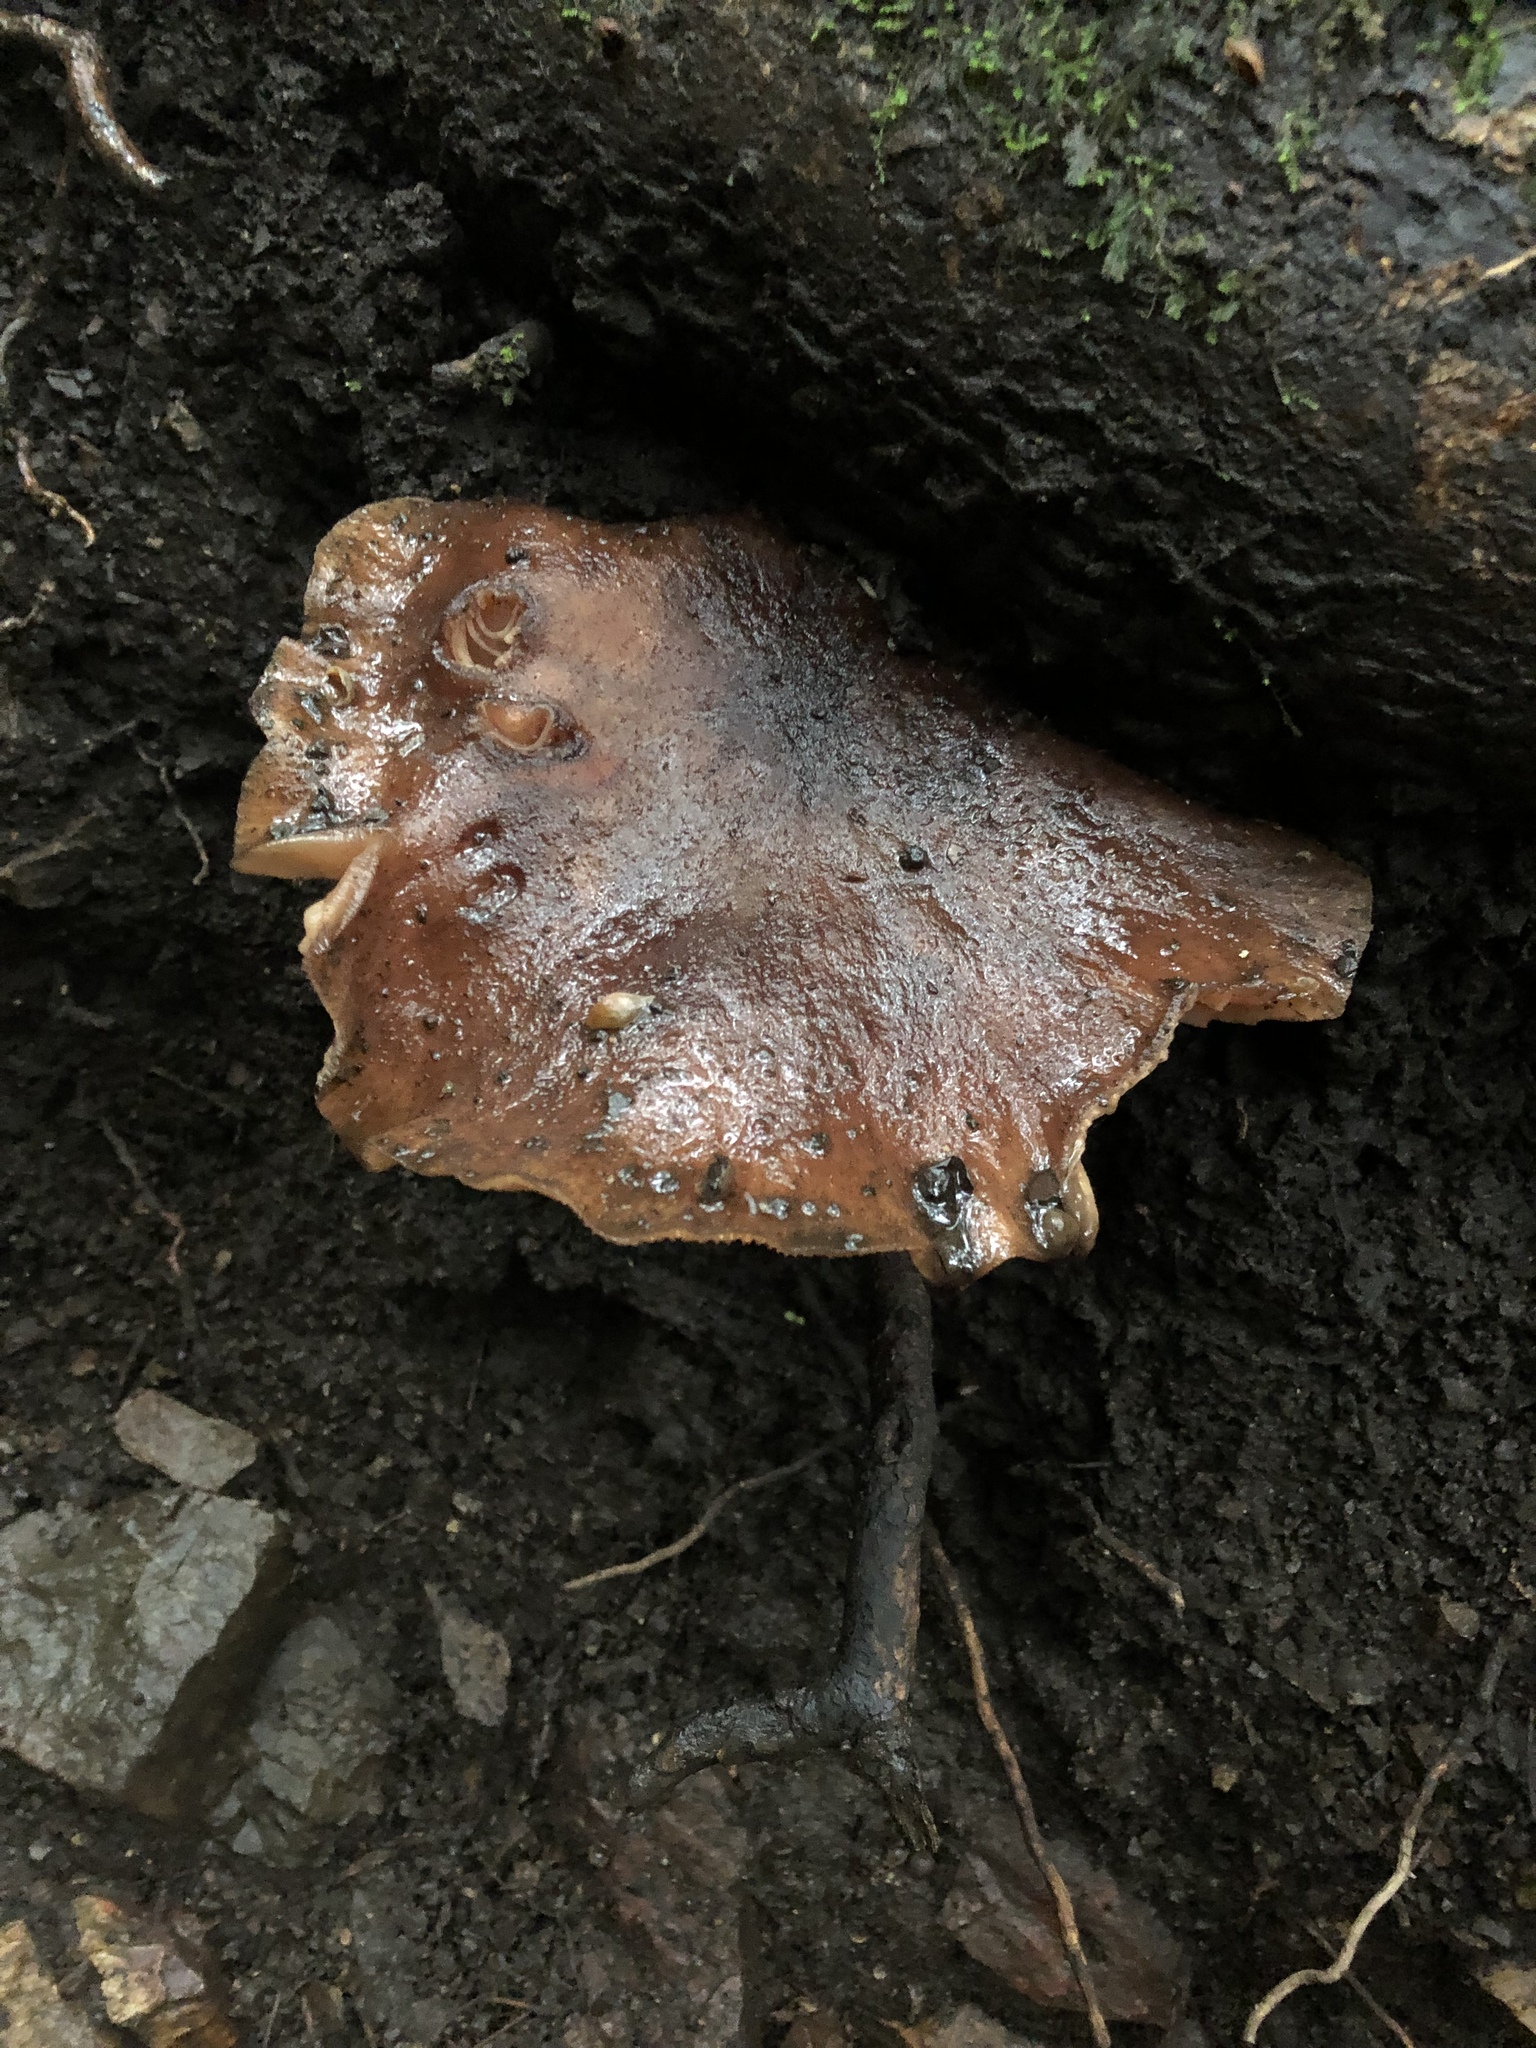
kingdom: Fungi
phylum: Basidiomycota
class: Agaricomycetes
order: Agaricales
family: Physalacriaceae
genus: Armillaria
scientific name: Armillaria mellea
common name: Honey fungus
